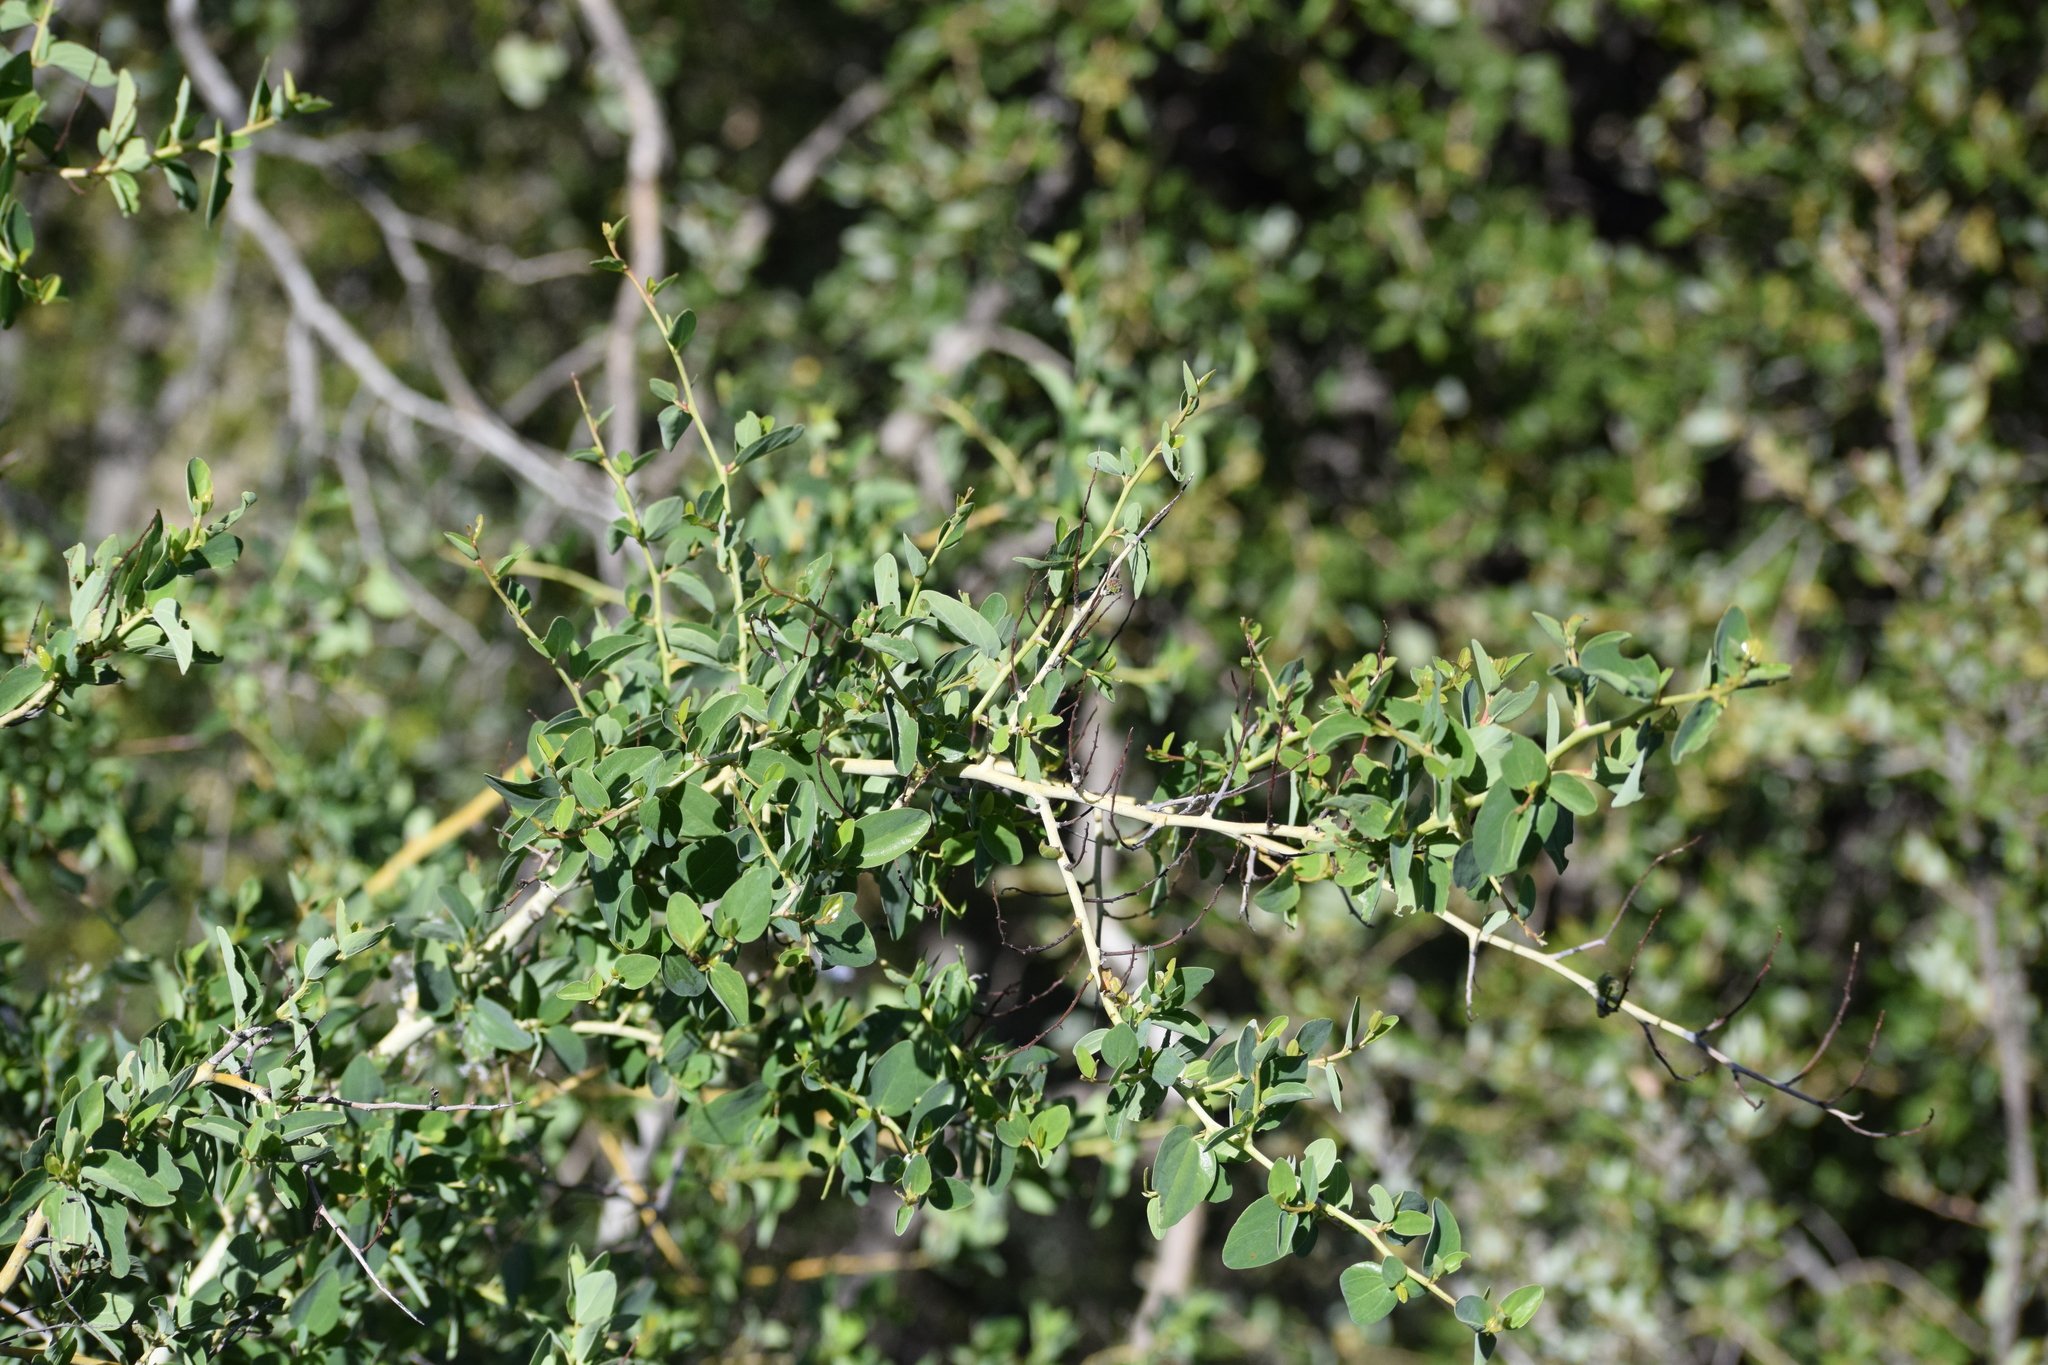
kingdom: Plantae
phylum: Tracheophyta
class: Magnoliopsida
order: Rosales
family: Rhamnaceae
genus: Ceanothus
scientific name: Ceanothus leucodermis
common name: Chaparral whitethorn
